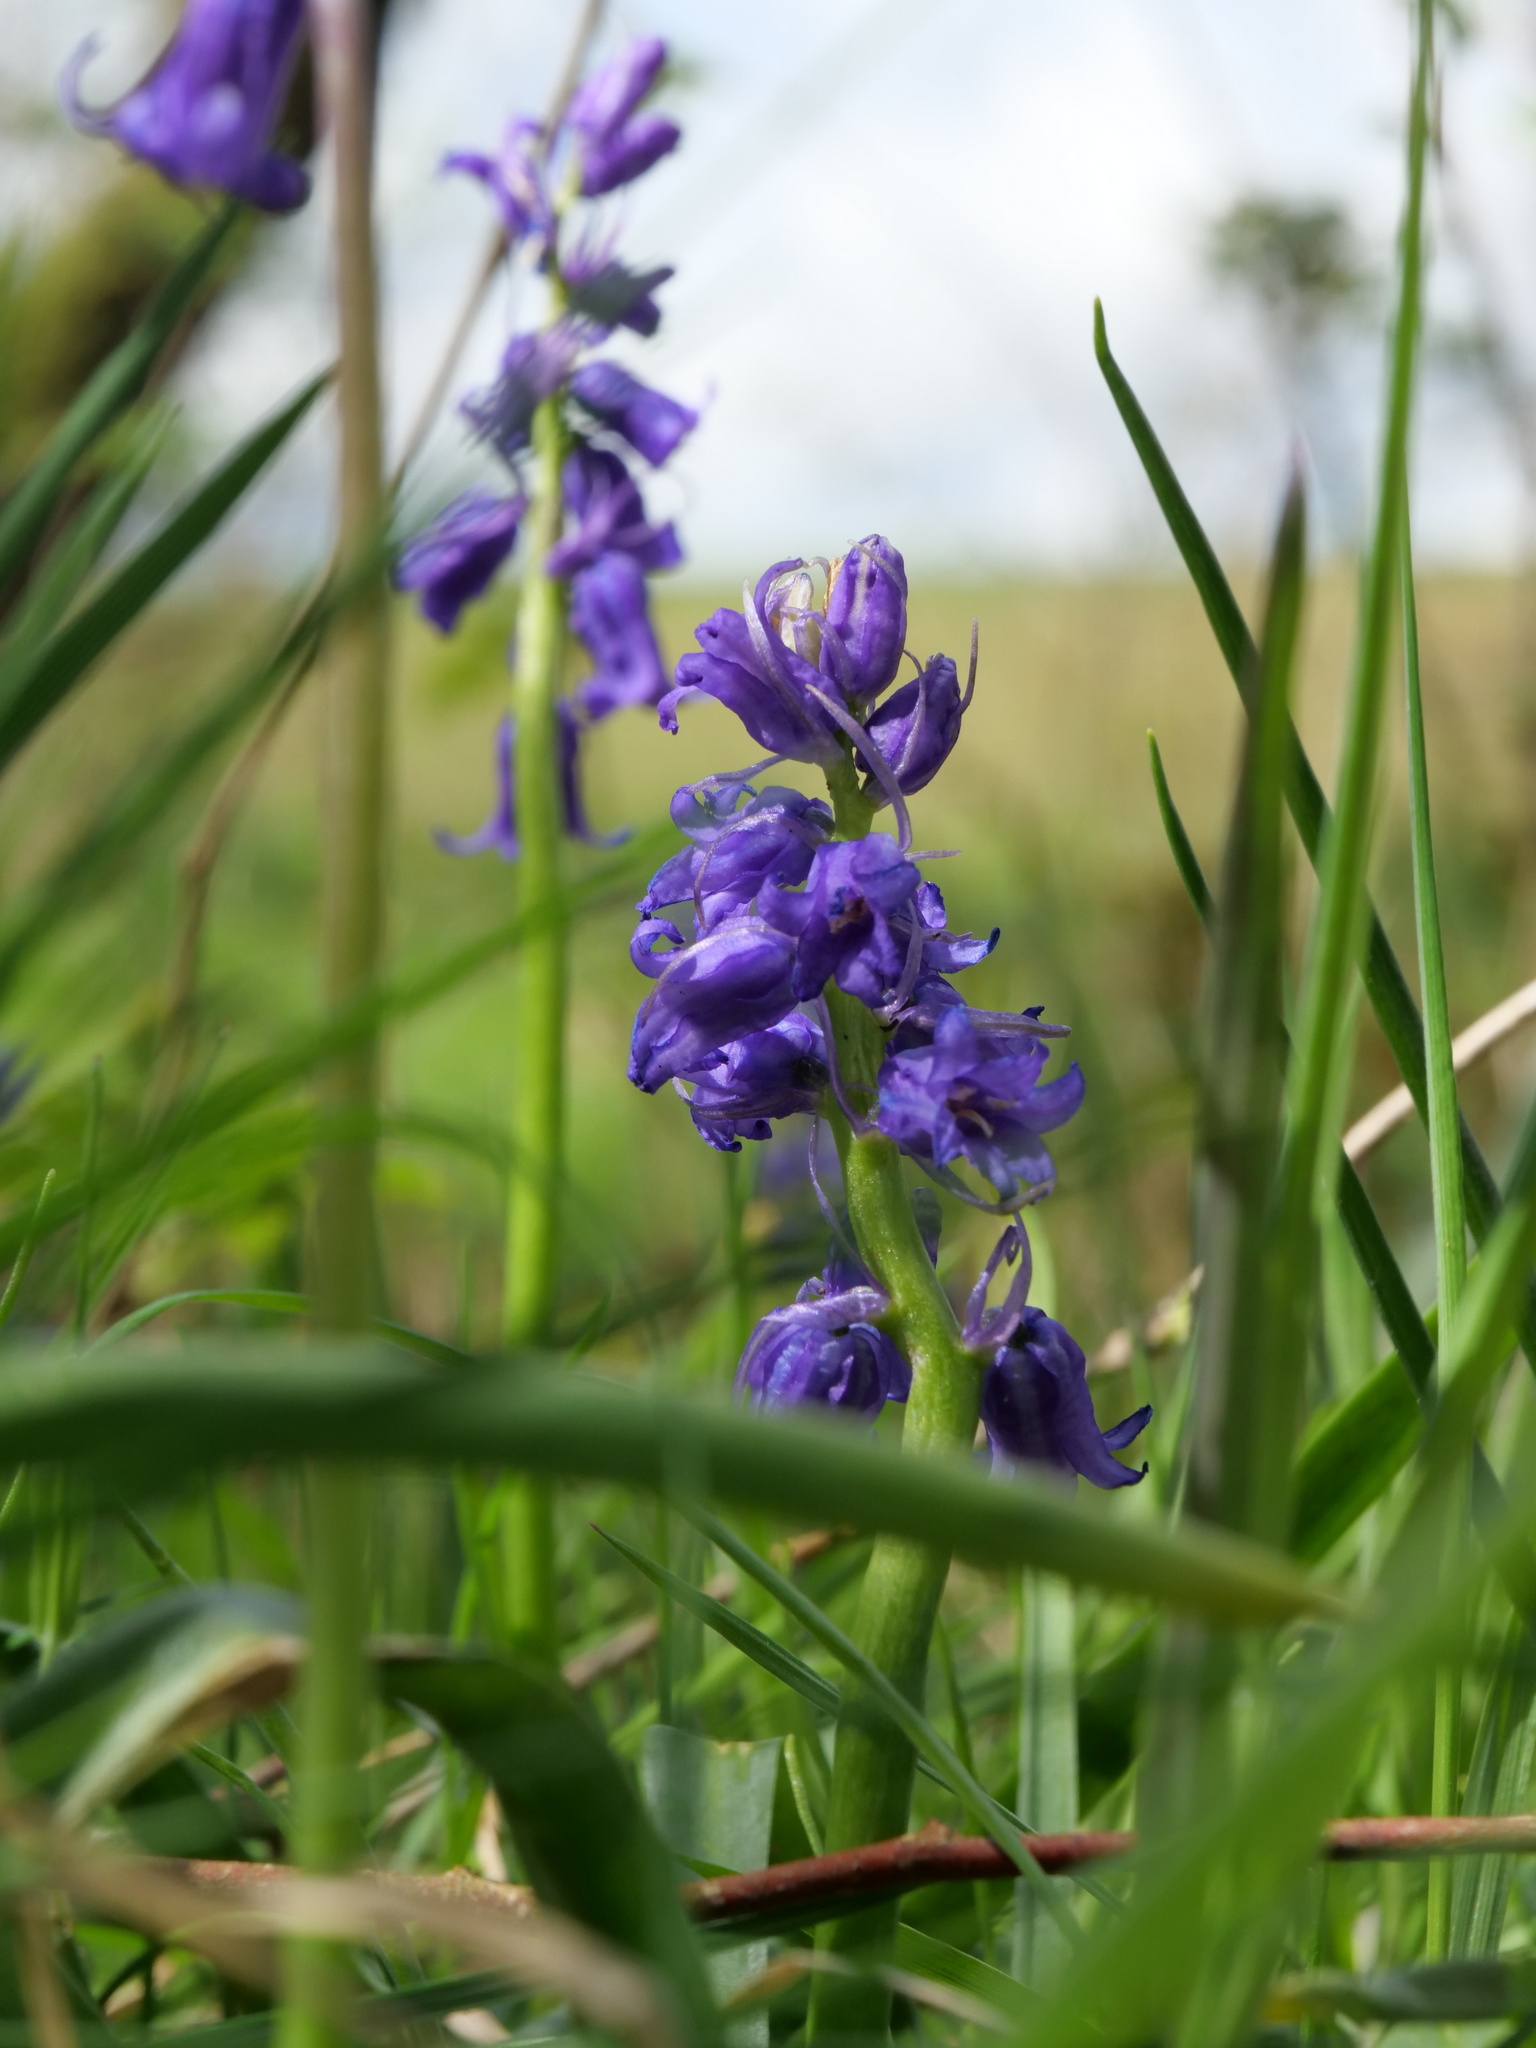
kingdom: Plantae
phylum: Tracheophyta
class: Liliopsida
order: Asparagales
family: Asparagaceae
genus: Hyacinthoides
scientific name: Hyacinthoides massartiana
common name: Hyacinthoides
